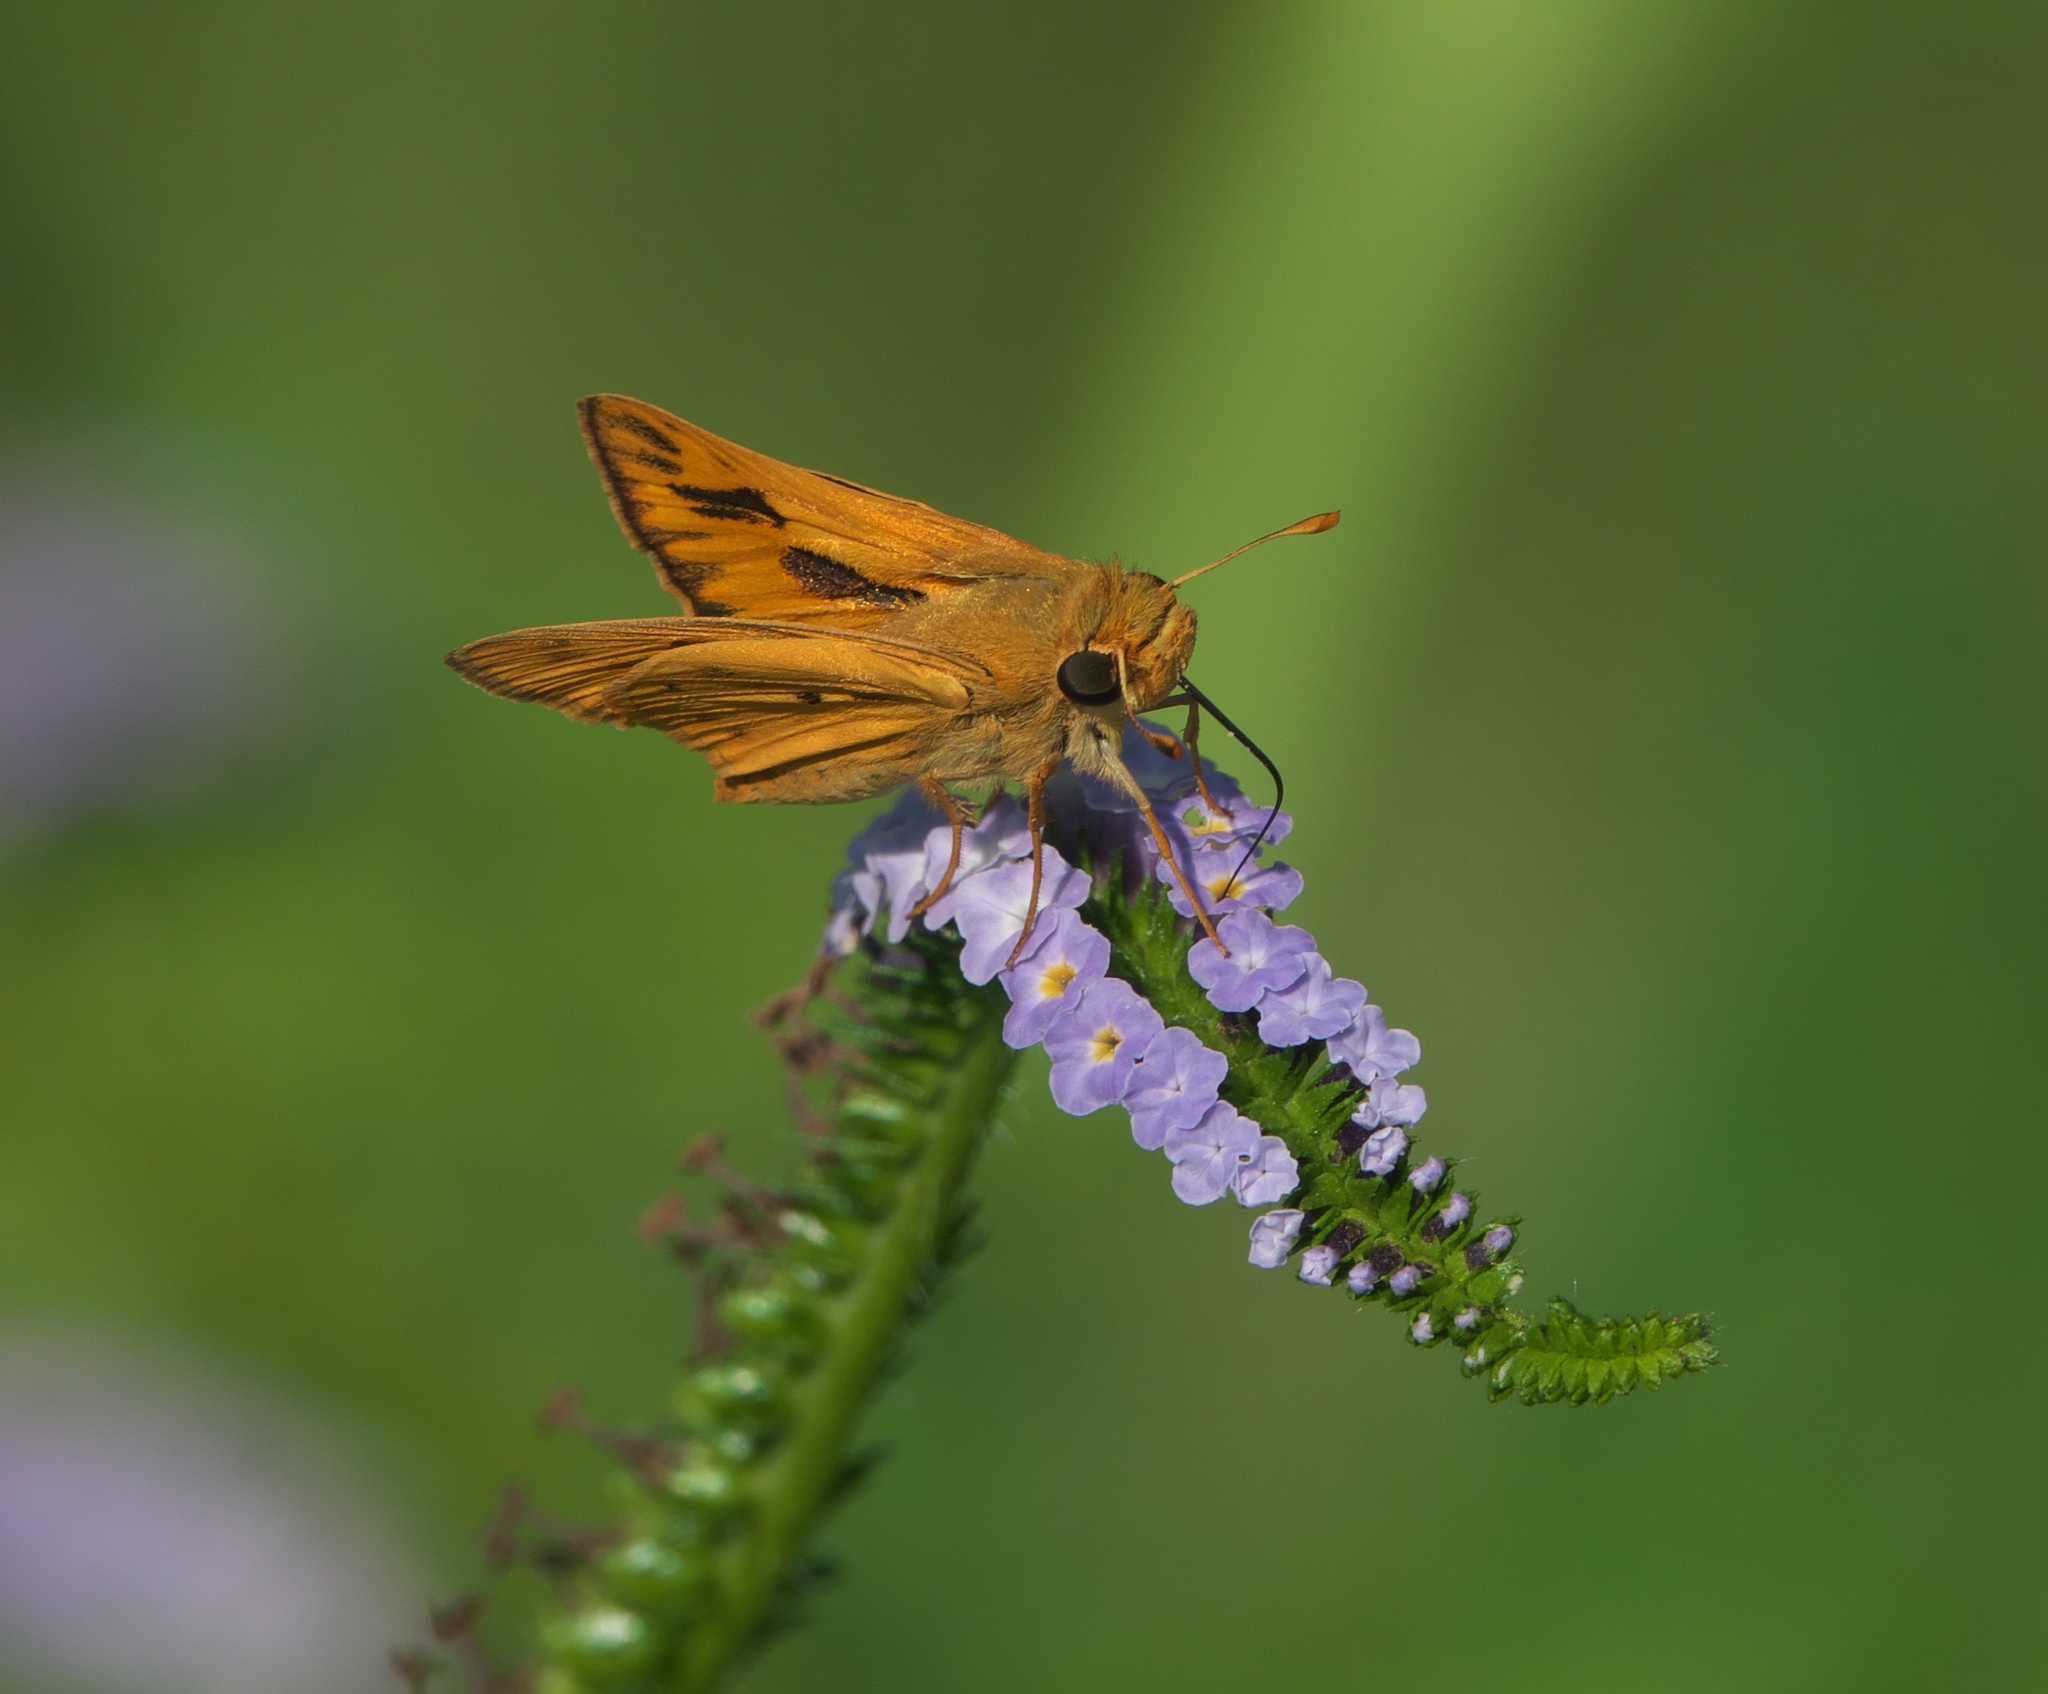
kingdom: Animalia
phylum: Arthropoda
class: Insecta
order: Lepidoptera
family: Hesperiidae
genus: Hylephila
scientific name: Hylephila phyleus
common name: Fiery skipper
